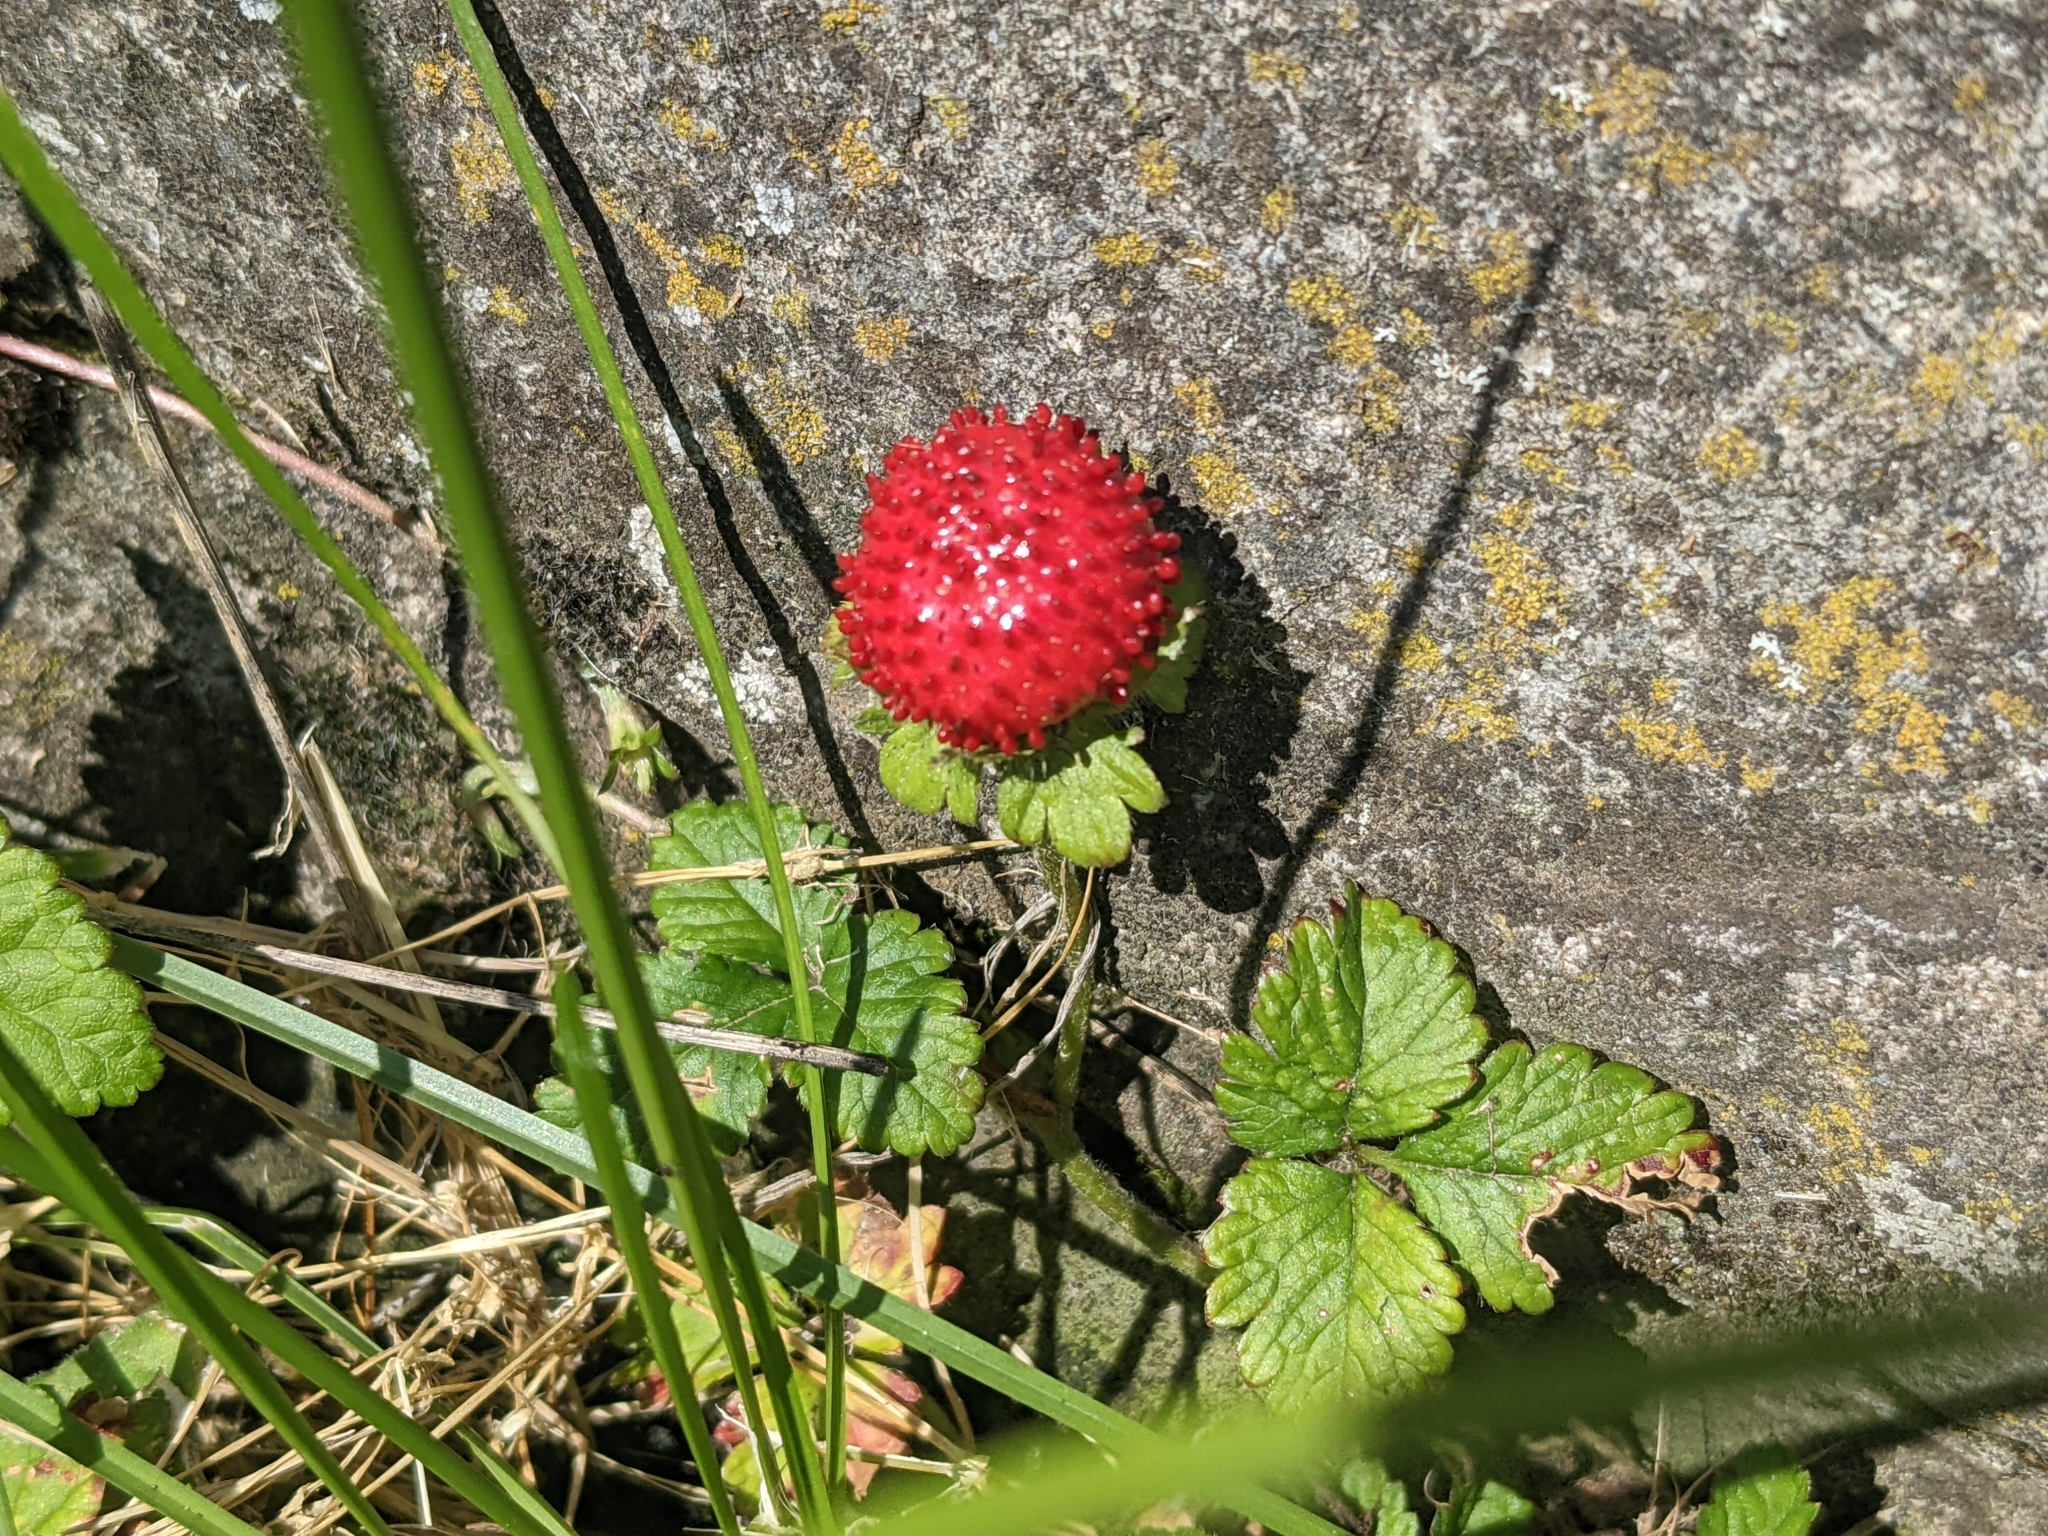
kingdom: Plantae
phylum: Tracheophyta
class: Magnoliopsida
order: Rosales
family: Rosaceae
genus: Potentilla
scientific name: Potentilla indica
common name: Yellow-flowered strawberry
